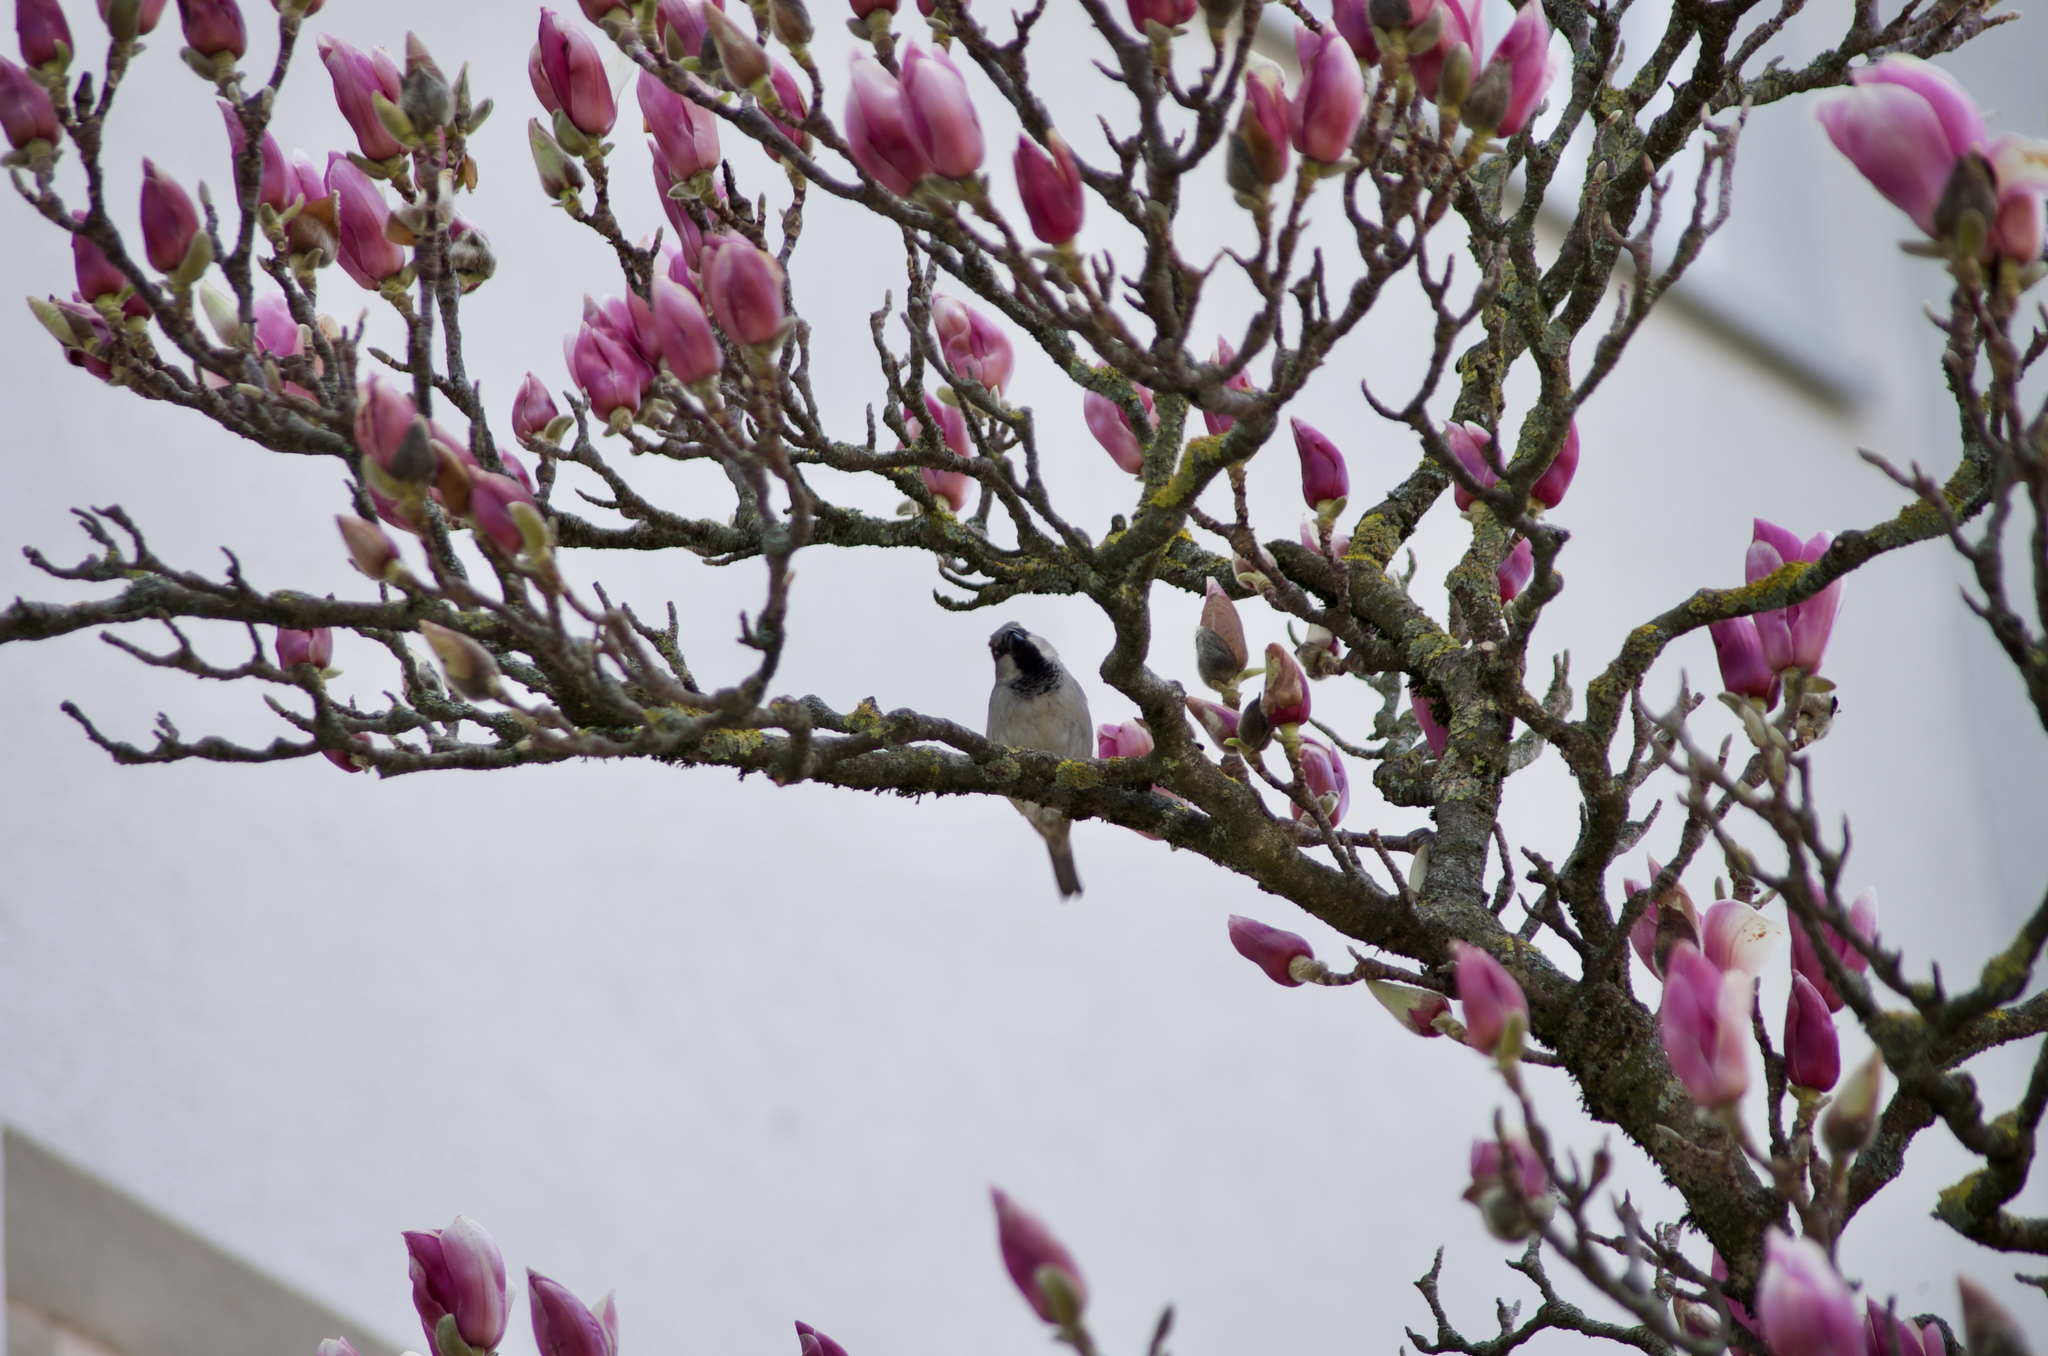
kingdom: Animalia
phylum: Chordata
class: Aves
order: Passeriformes
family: Passeridae
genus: Passer
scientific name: Passer domesticus
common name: House sparrow
